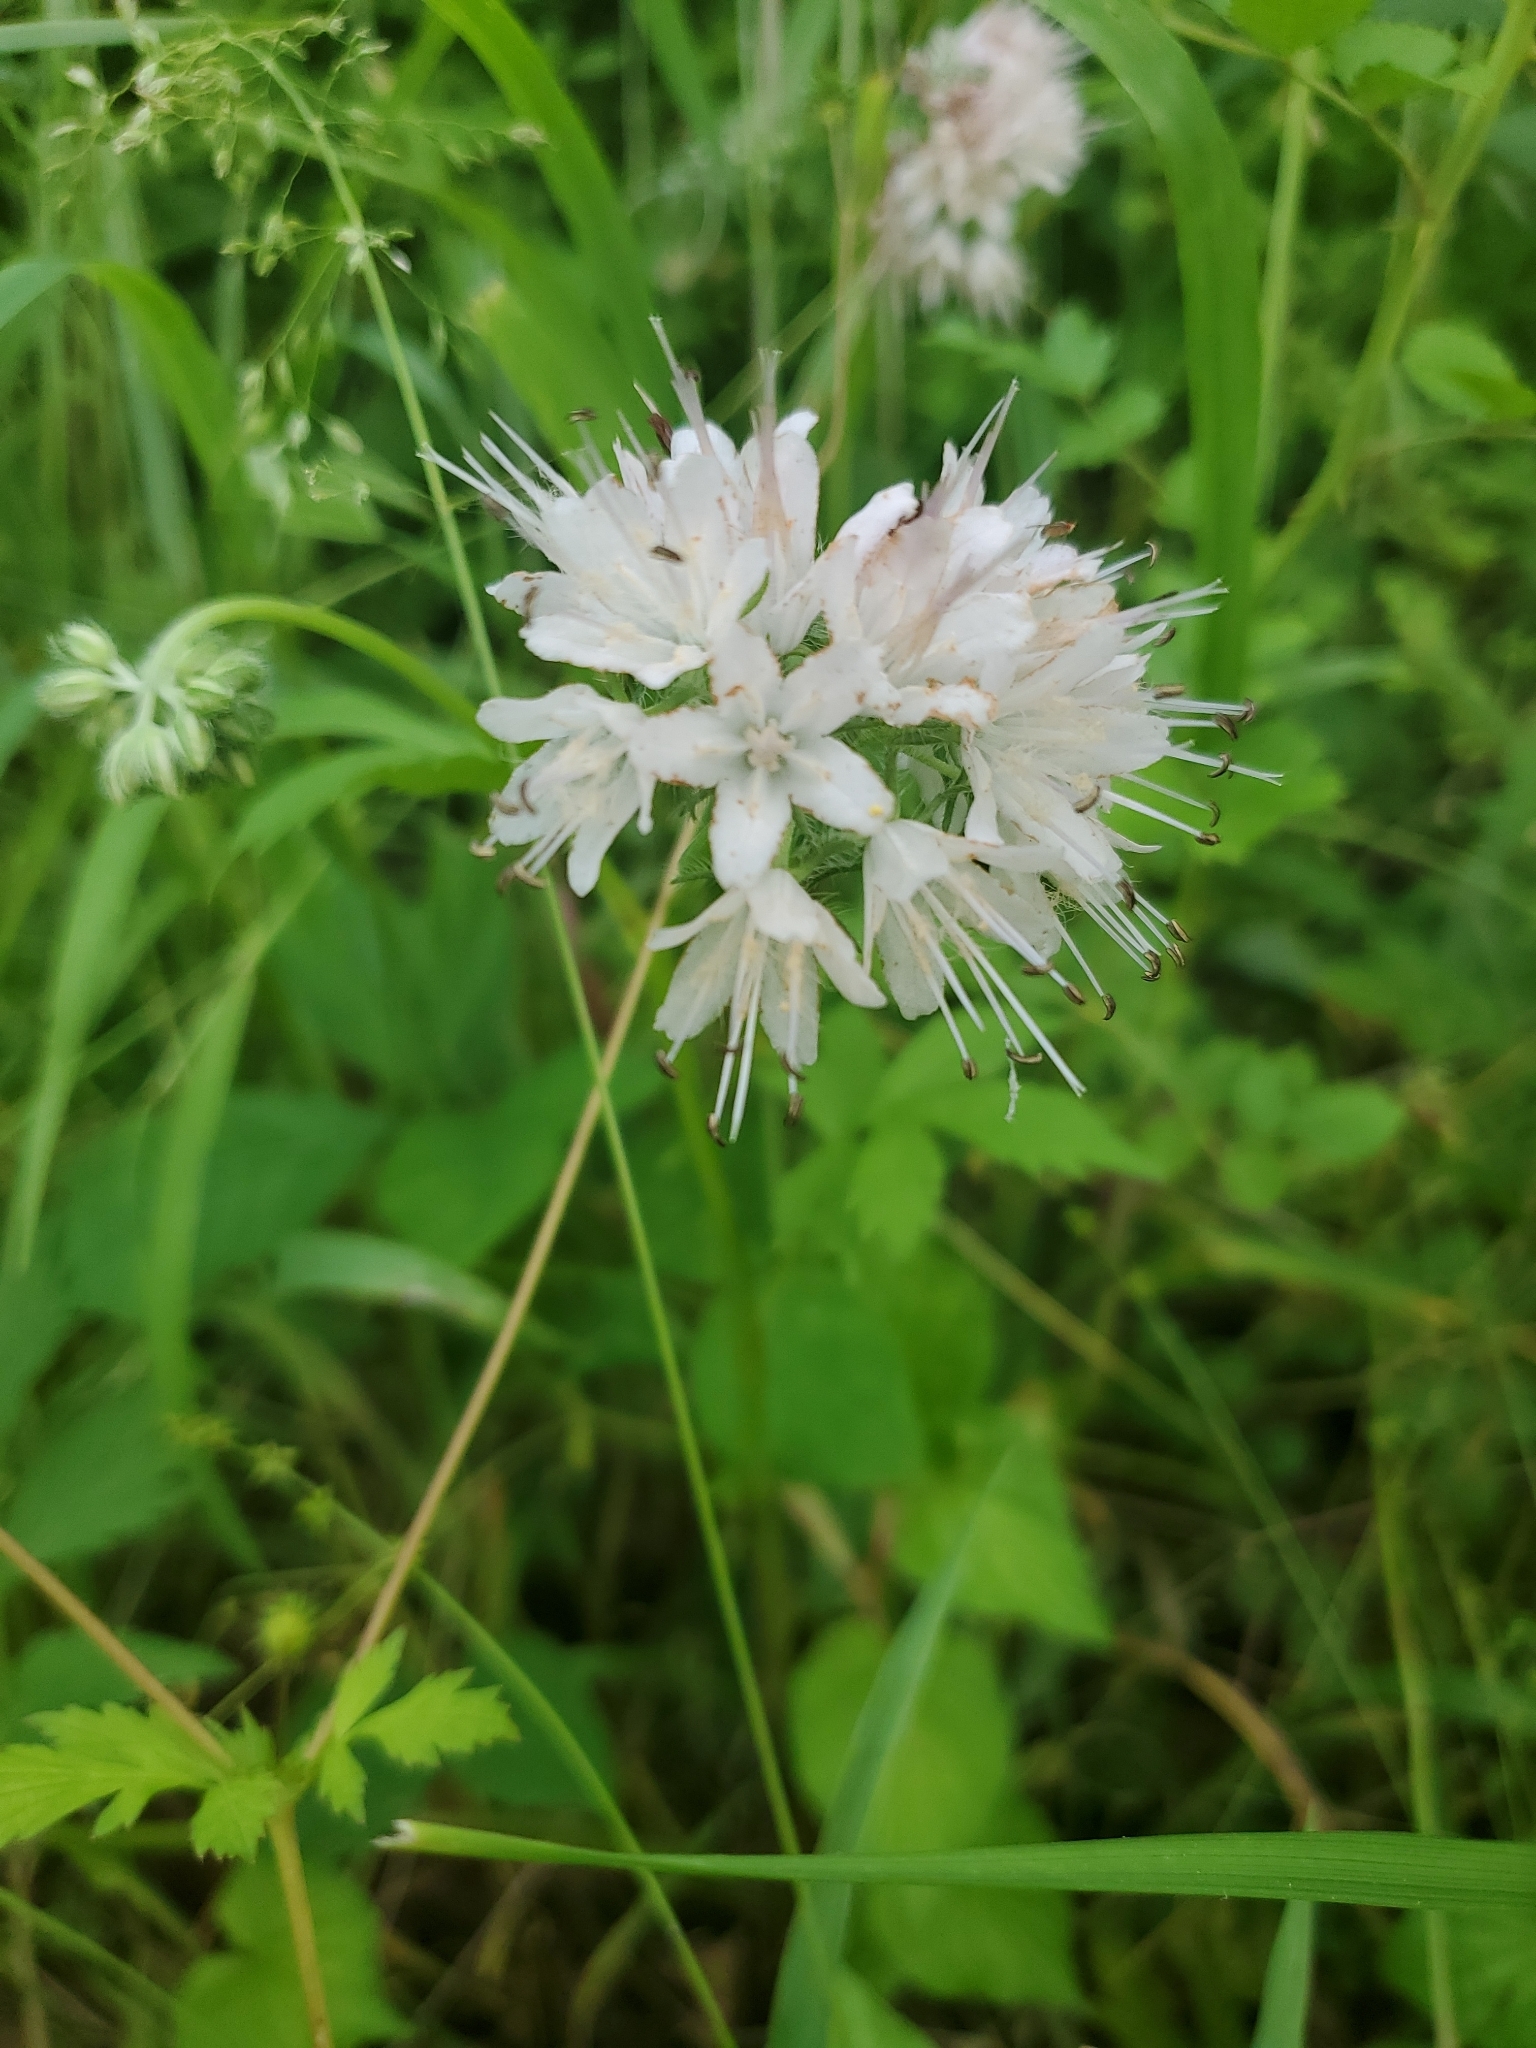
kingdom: Plantae
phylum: Tracheophyta
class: Magnoliopsida
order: Boraginales
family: Hydrophyllaceae
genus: Hydrophyllum
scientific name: Hydrophyllum virginianum
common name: Virginia waterleaf
